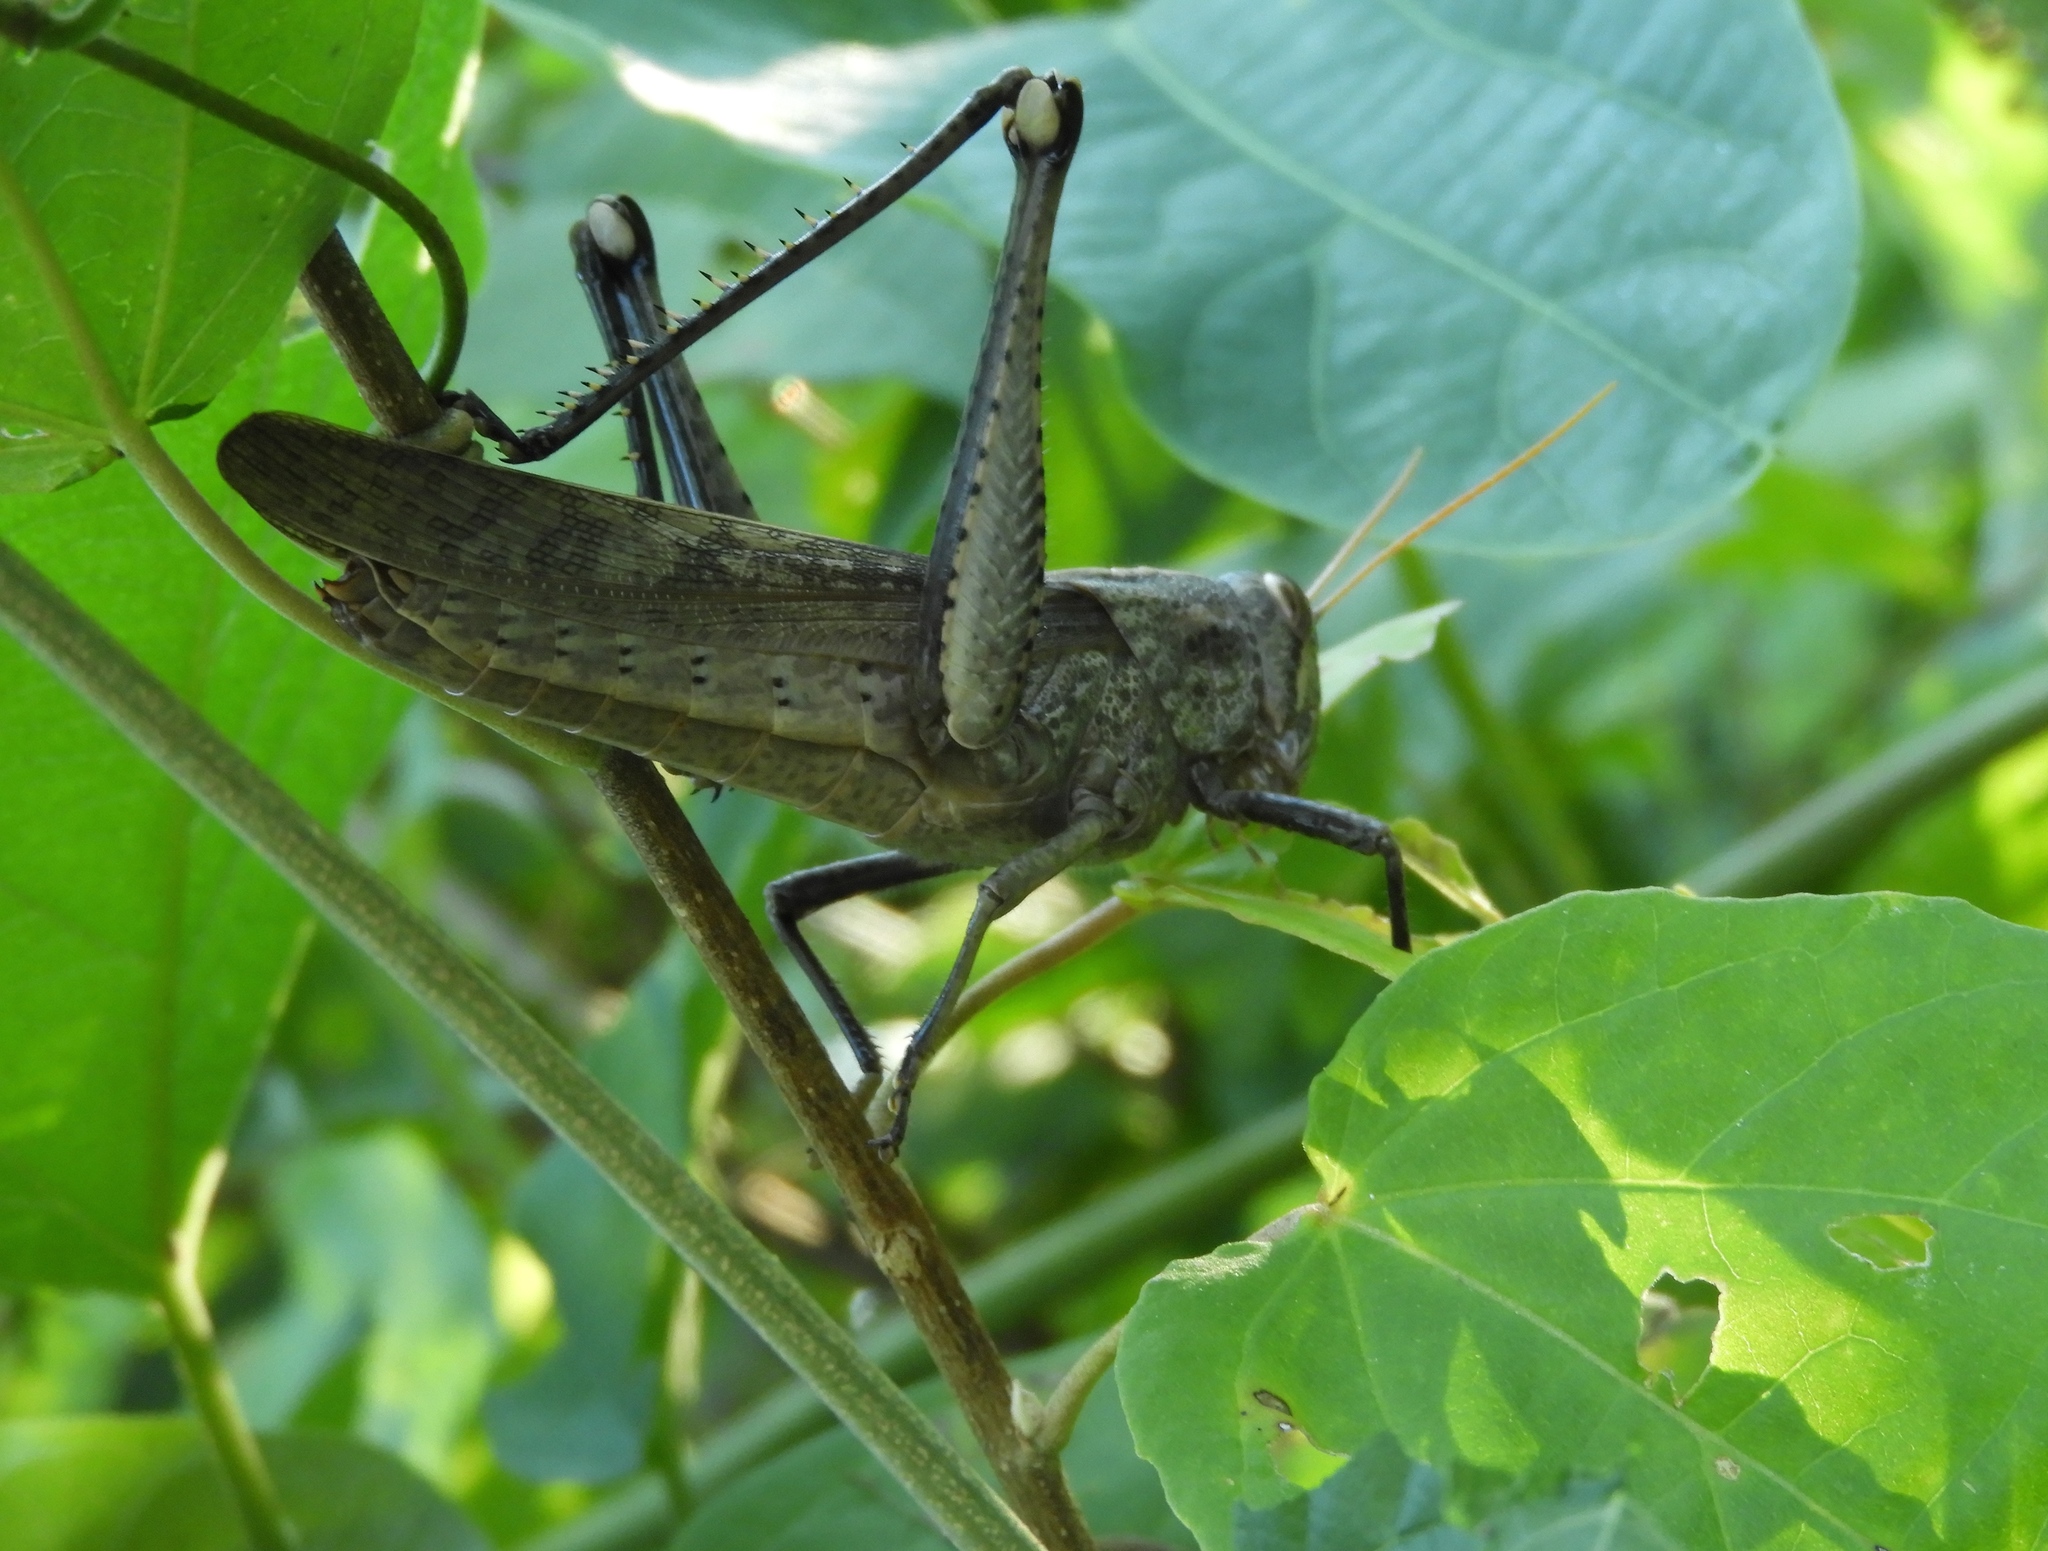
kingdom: Animalia
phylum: Arthropoda
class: Insecta
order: Orthoptera
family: Acrididae
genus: Schistocerca
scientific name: Schistocerca
